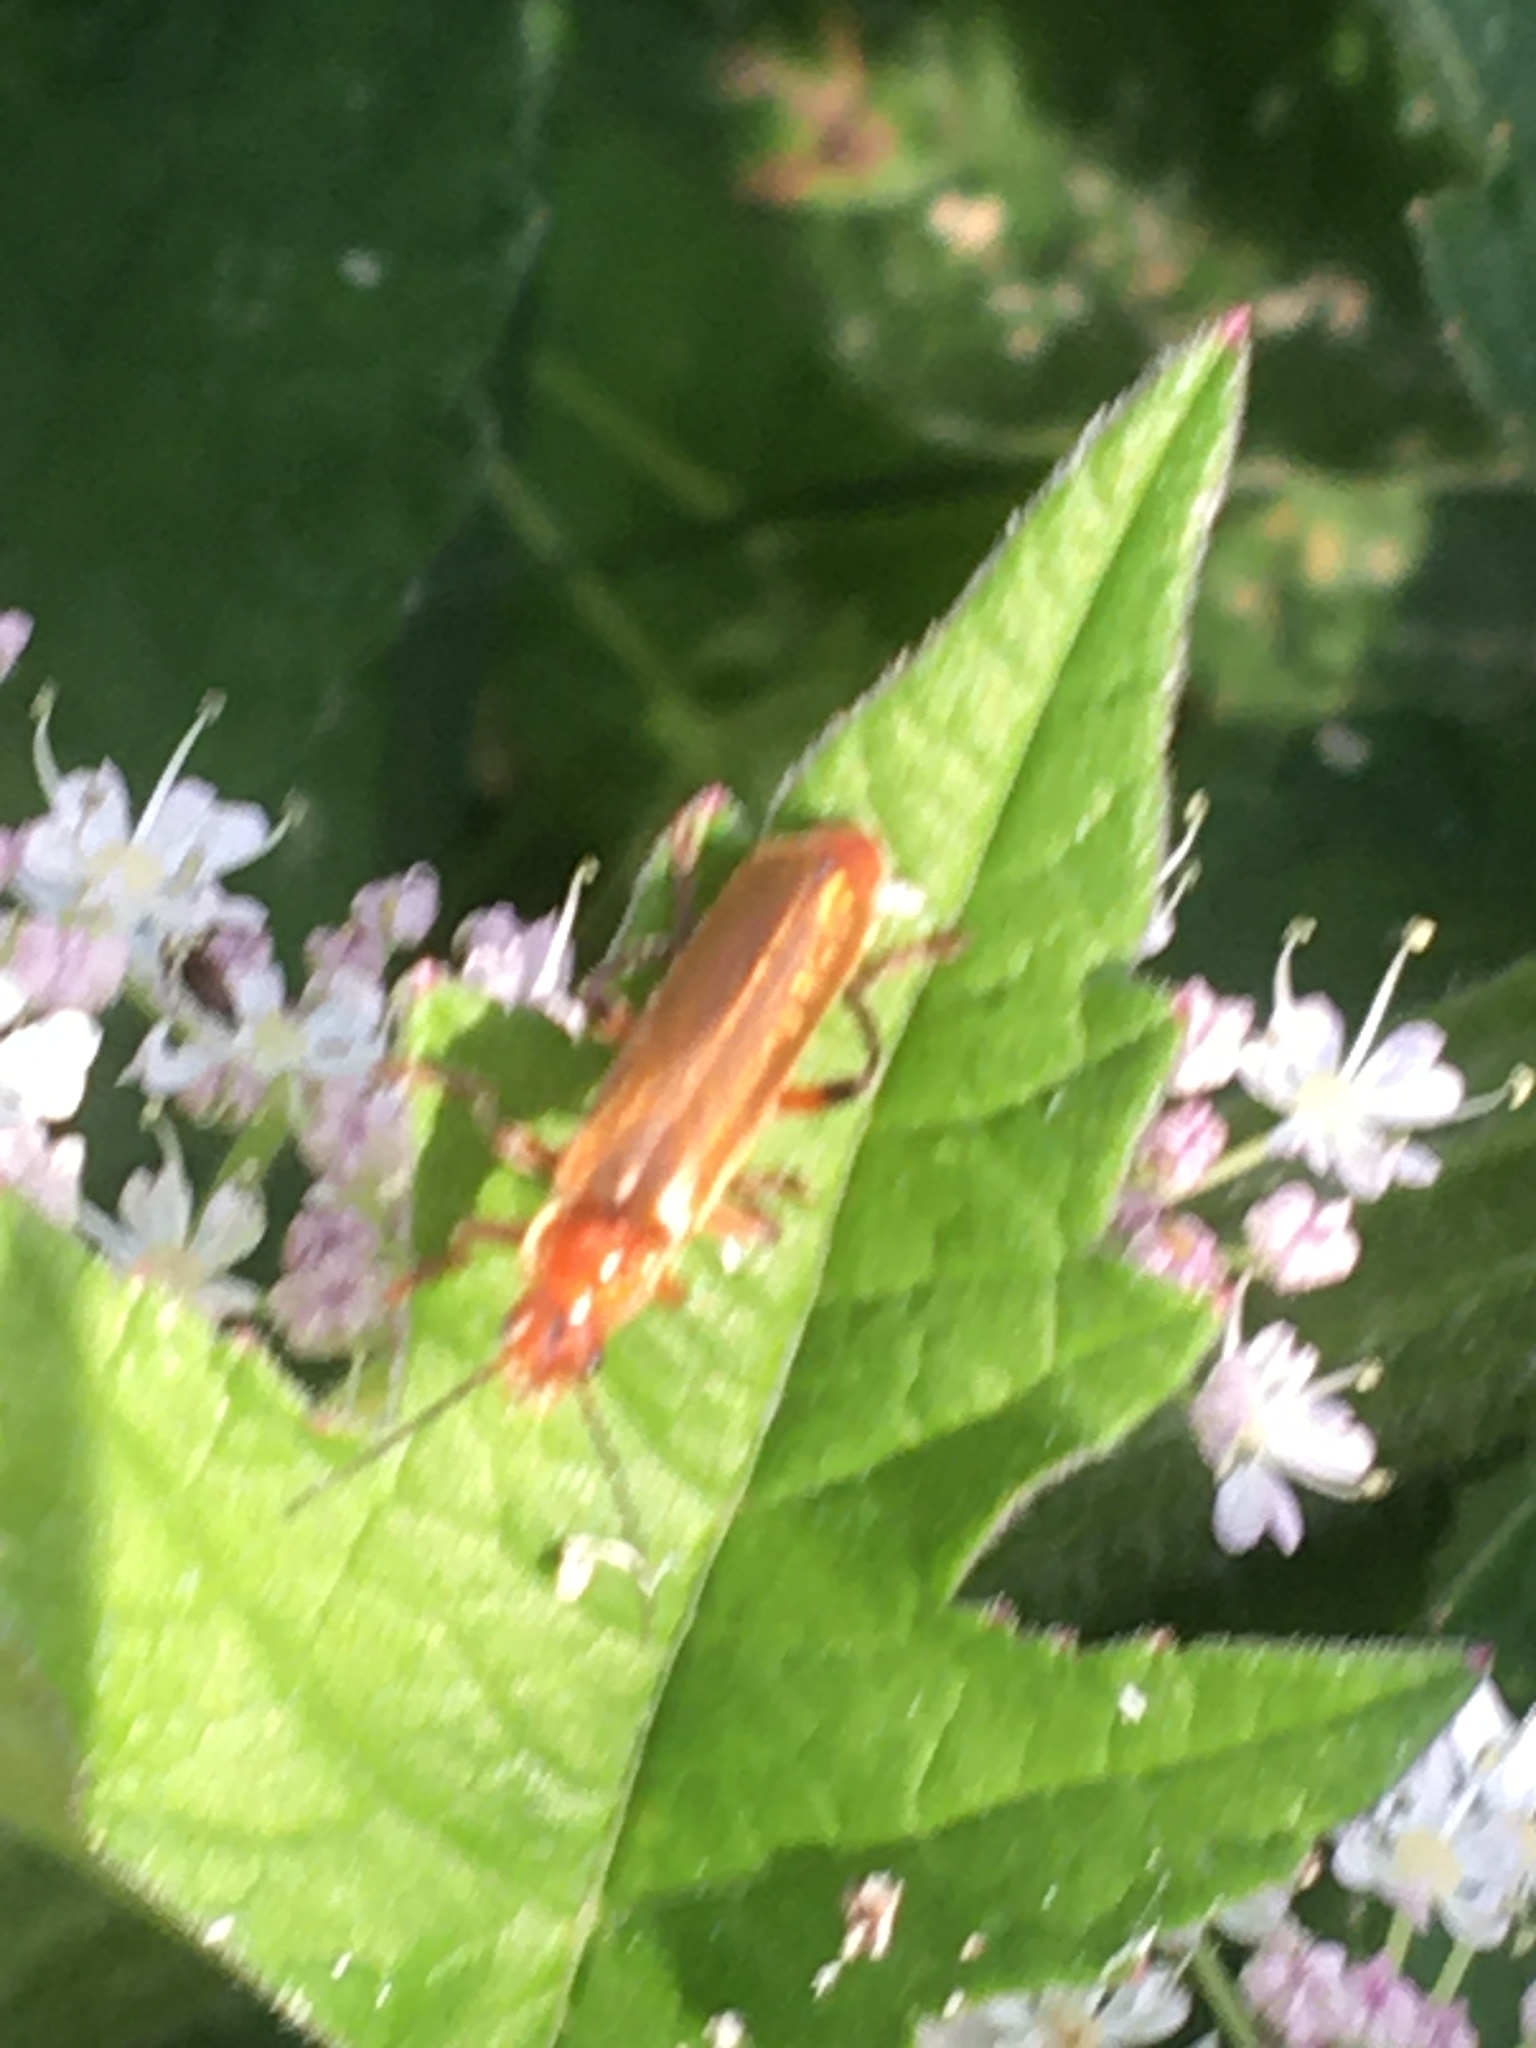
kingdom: Animalia
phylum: Arthropoda
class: Insecta
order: Coleoptera
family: Cantharidae
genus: Cantharis
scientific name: Cantharis livida
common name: Livid soldier beetle
